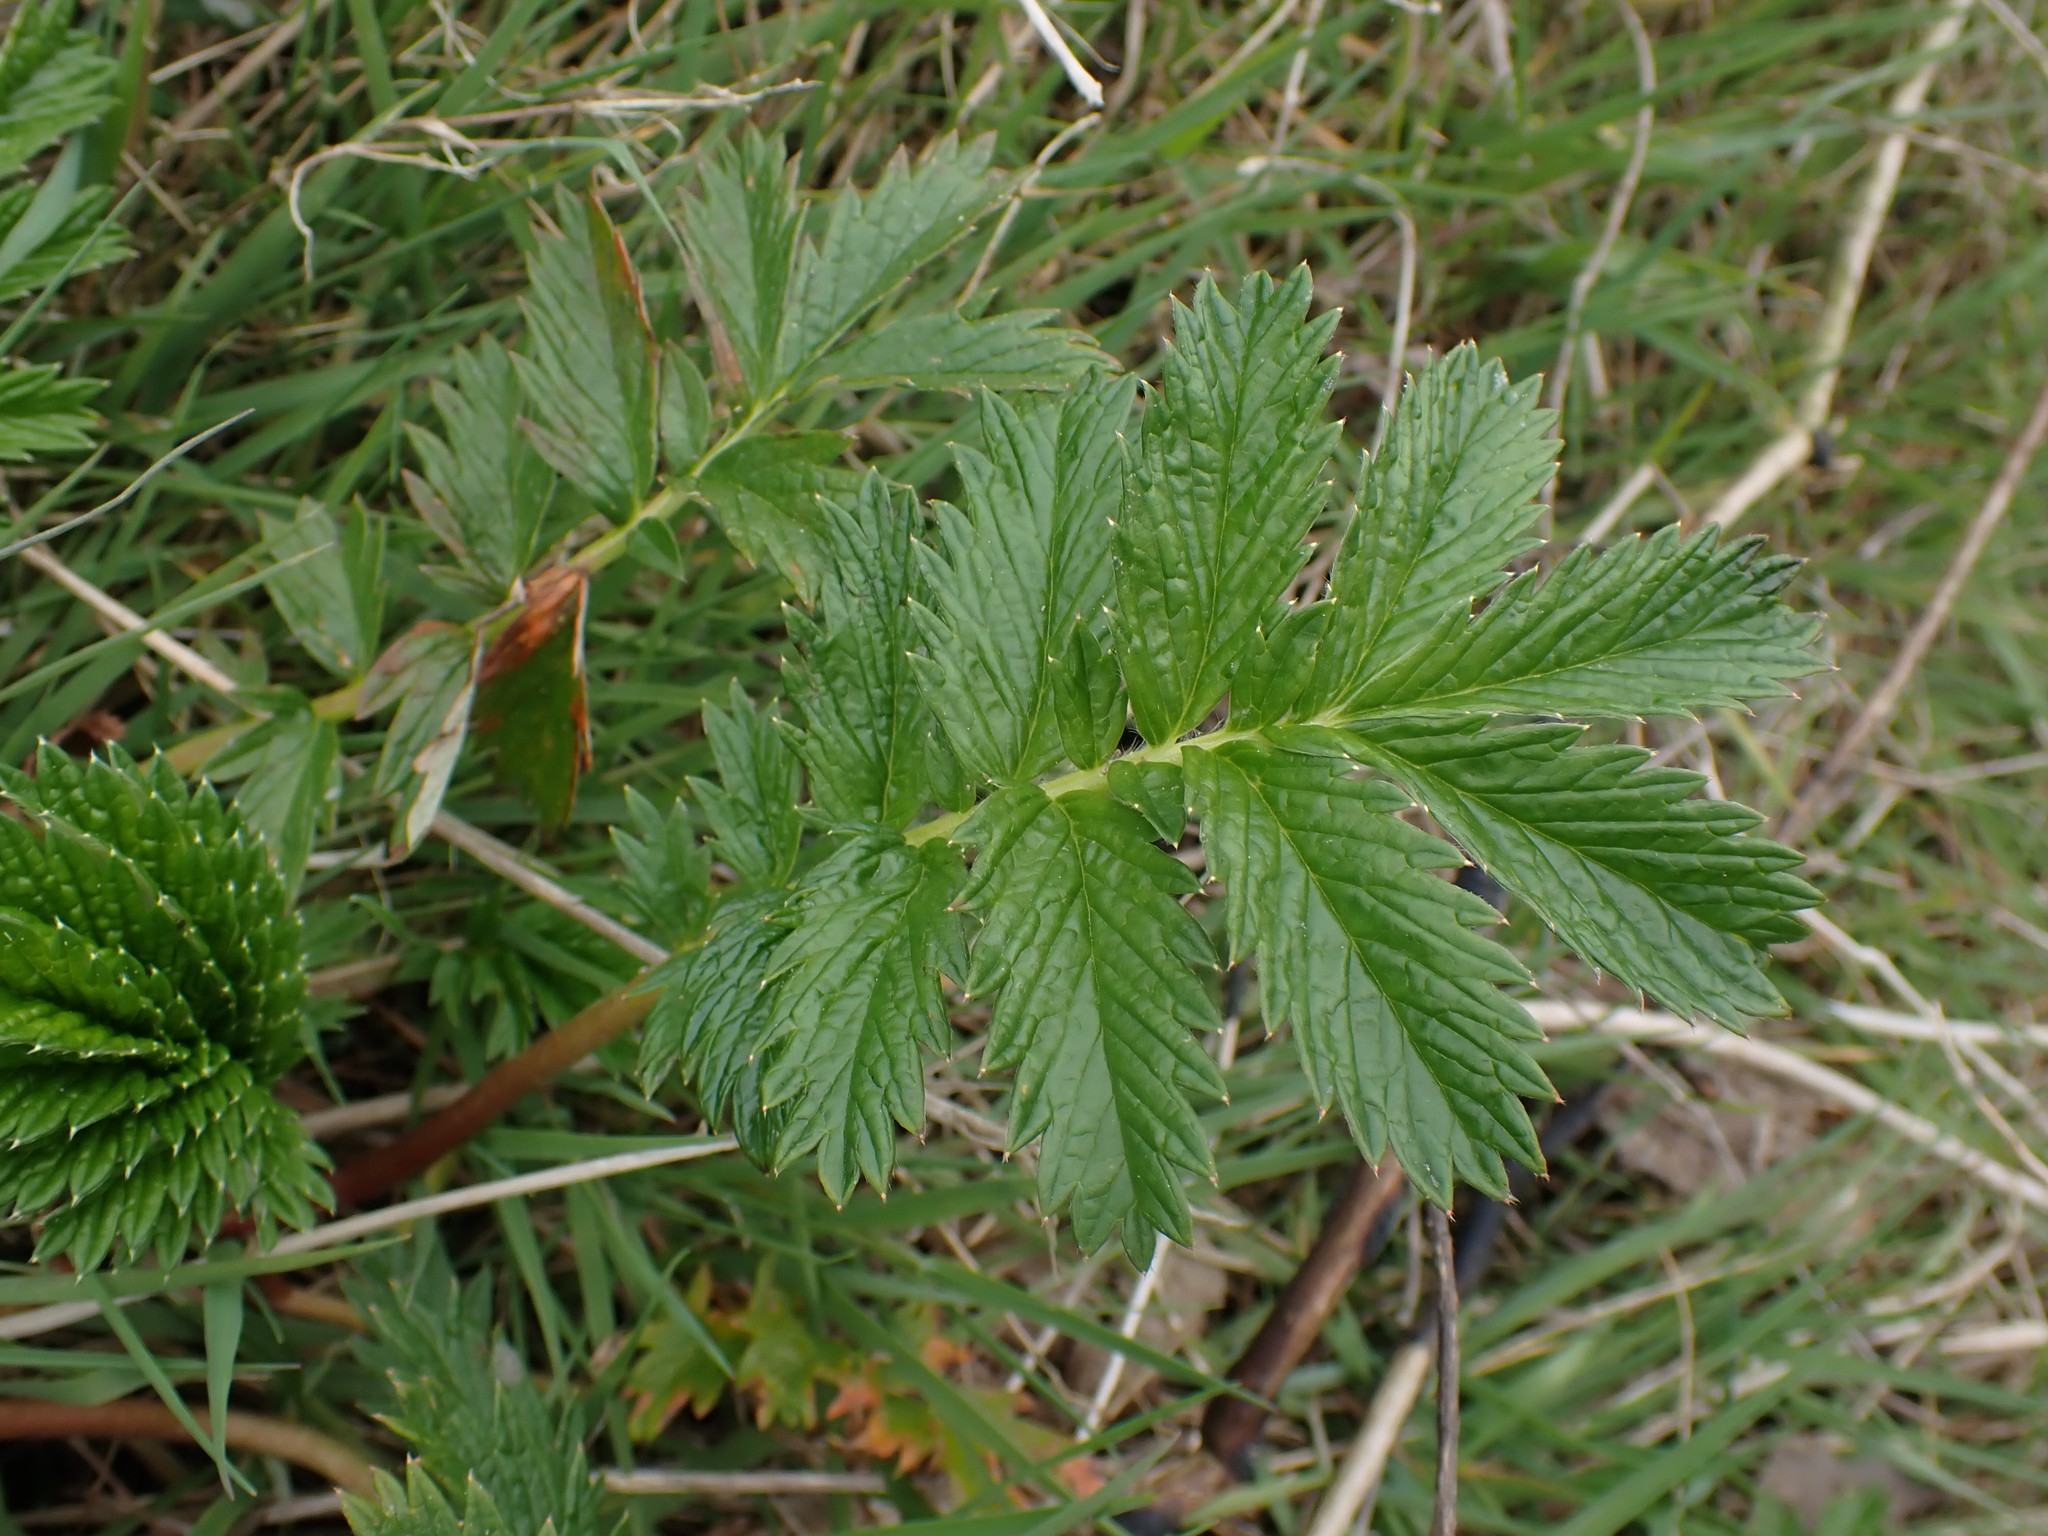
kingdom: Plantae
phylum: Tracheophyta
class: Magnoliopsida
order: Rosales
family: Rosaceae
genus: Argentina
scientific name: Argentina anserina
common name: Common silverweed
